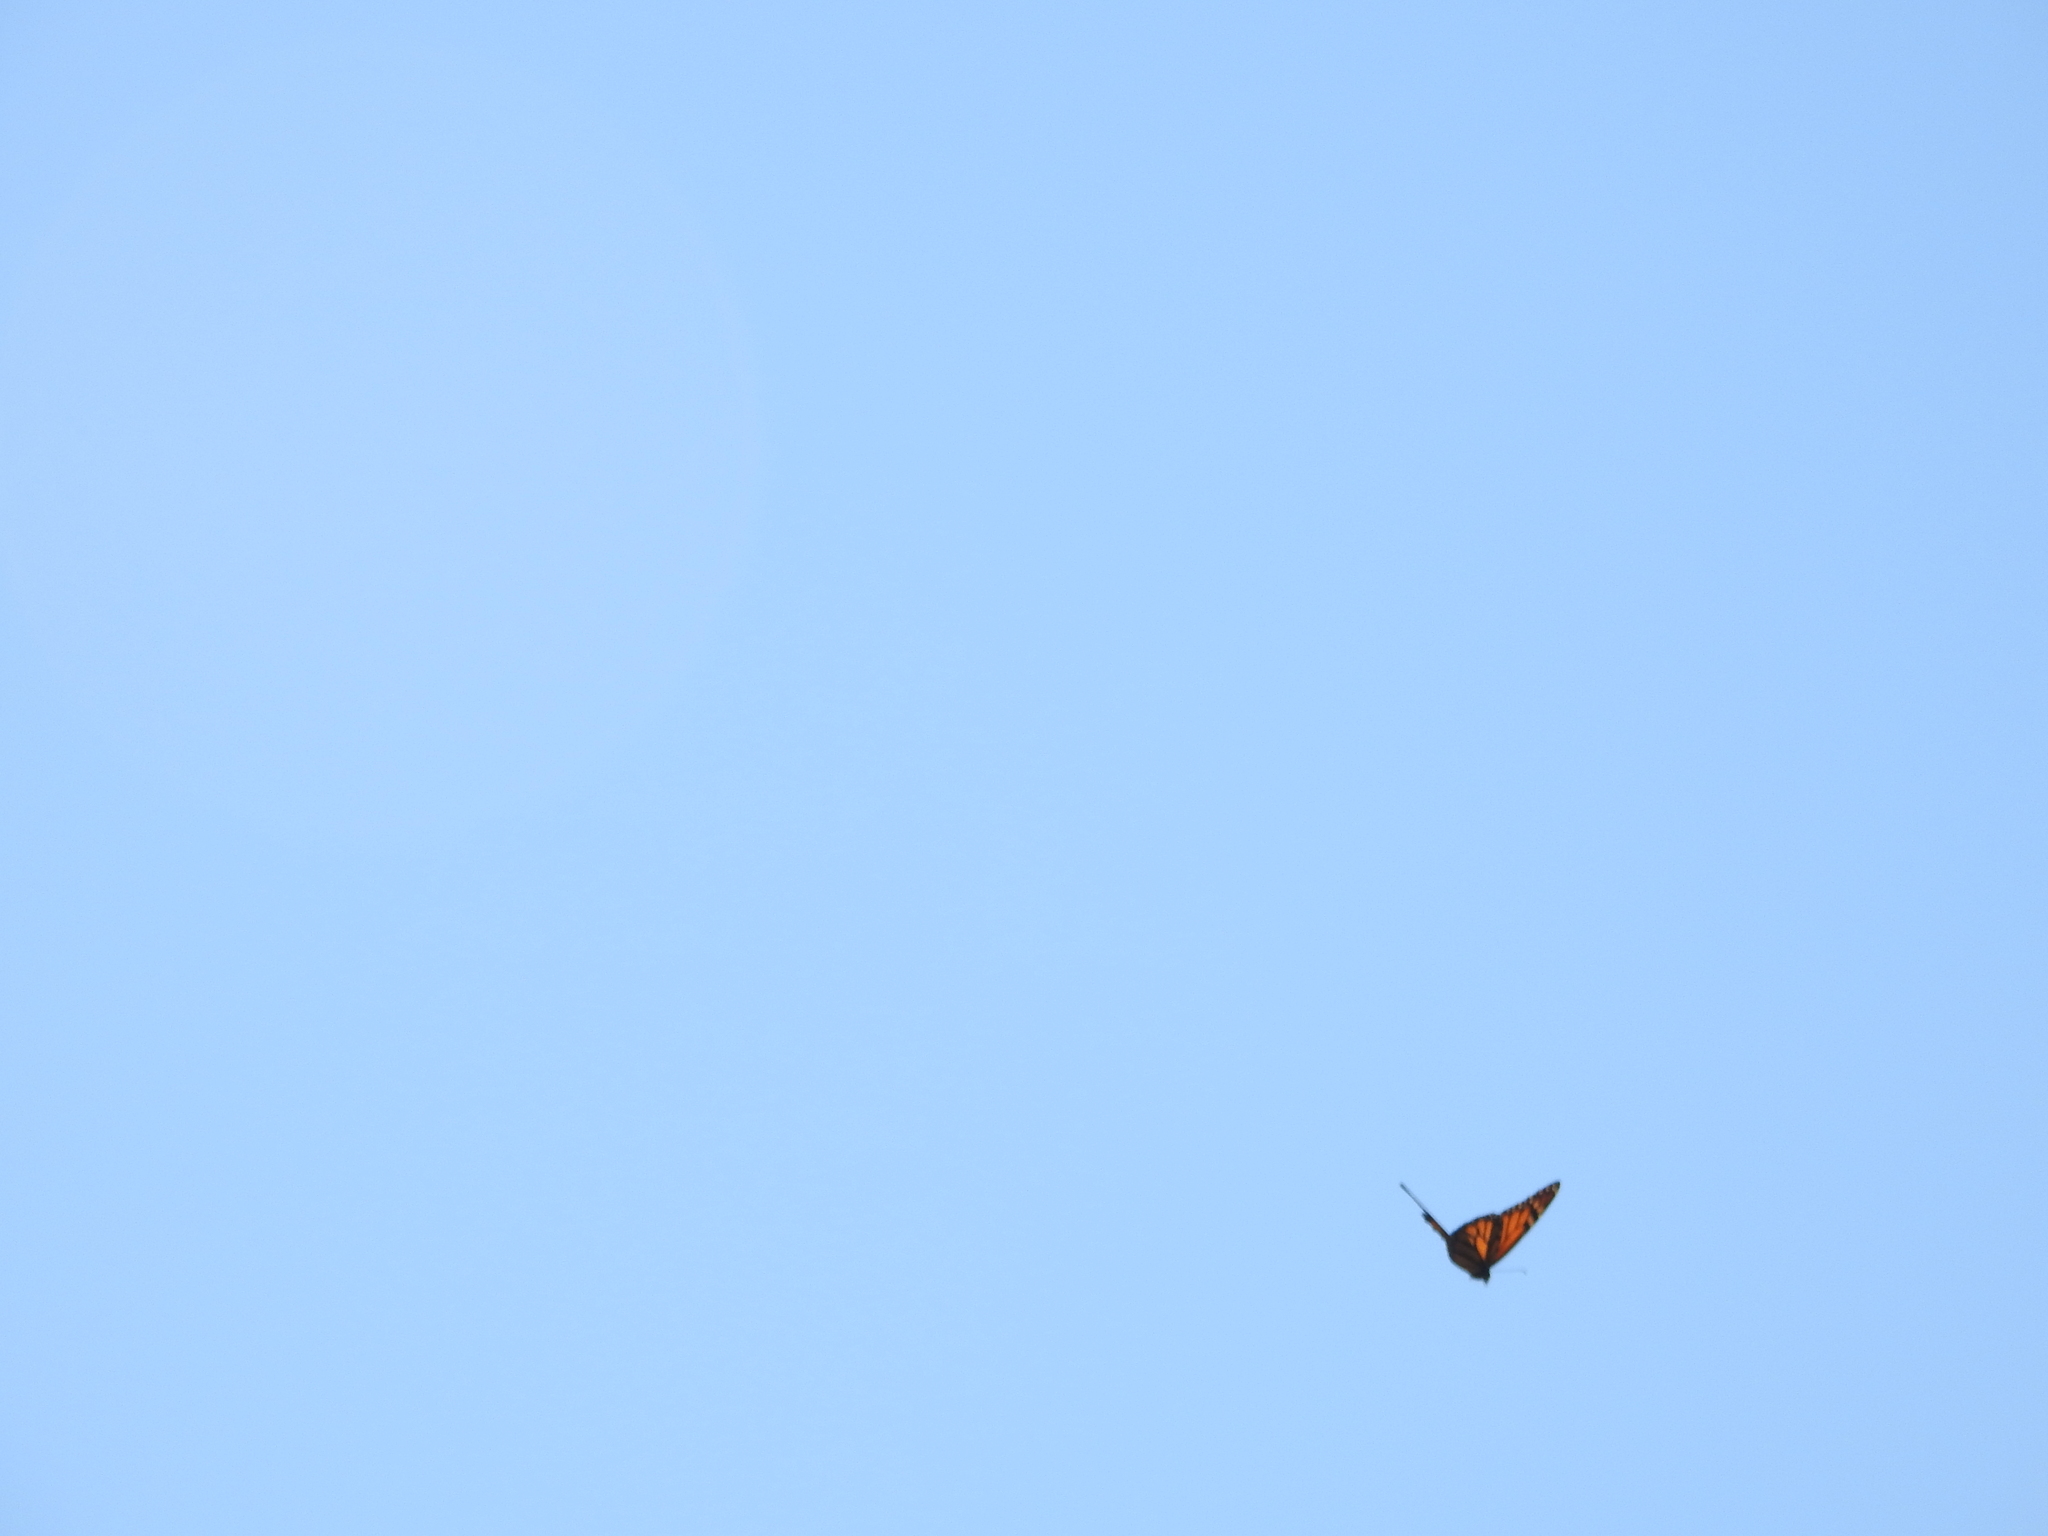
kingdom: Animalia
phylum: Arthropoda
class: Insecta
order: Lepidoptera
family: Nymphalidae
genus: Danaus
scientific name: Danaus plexippus
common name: Monarch
